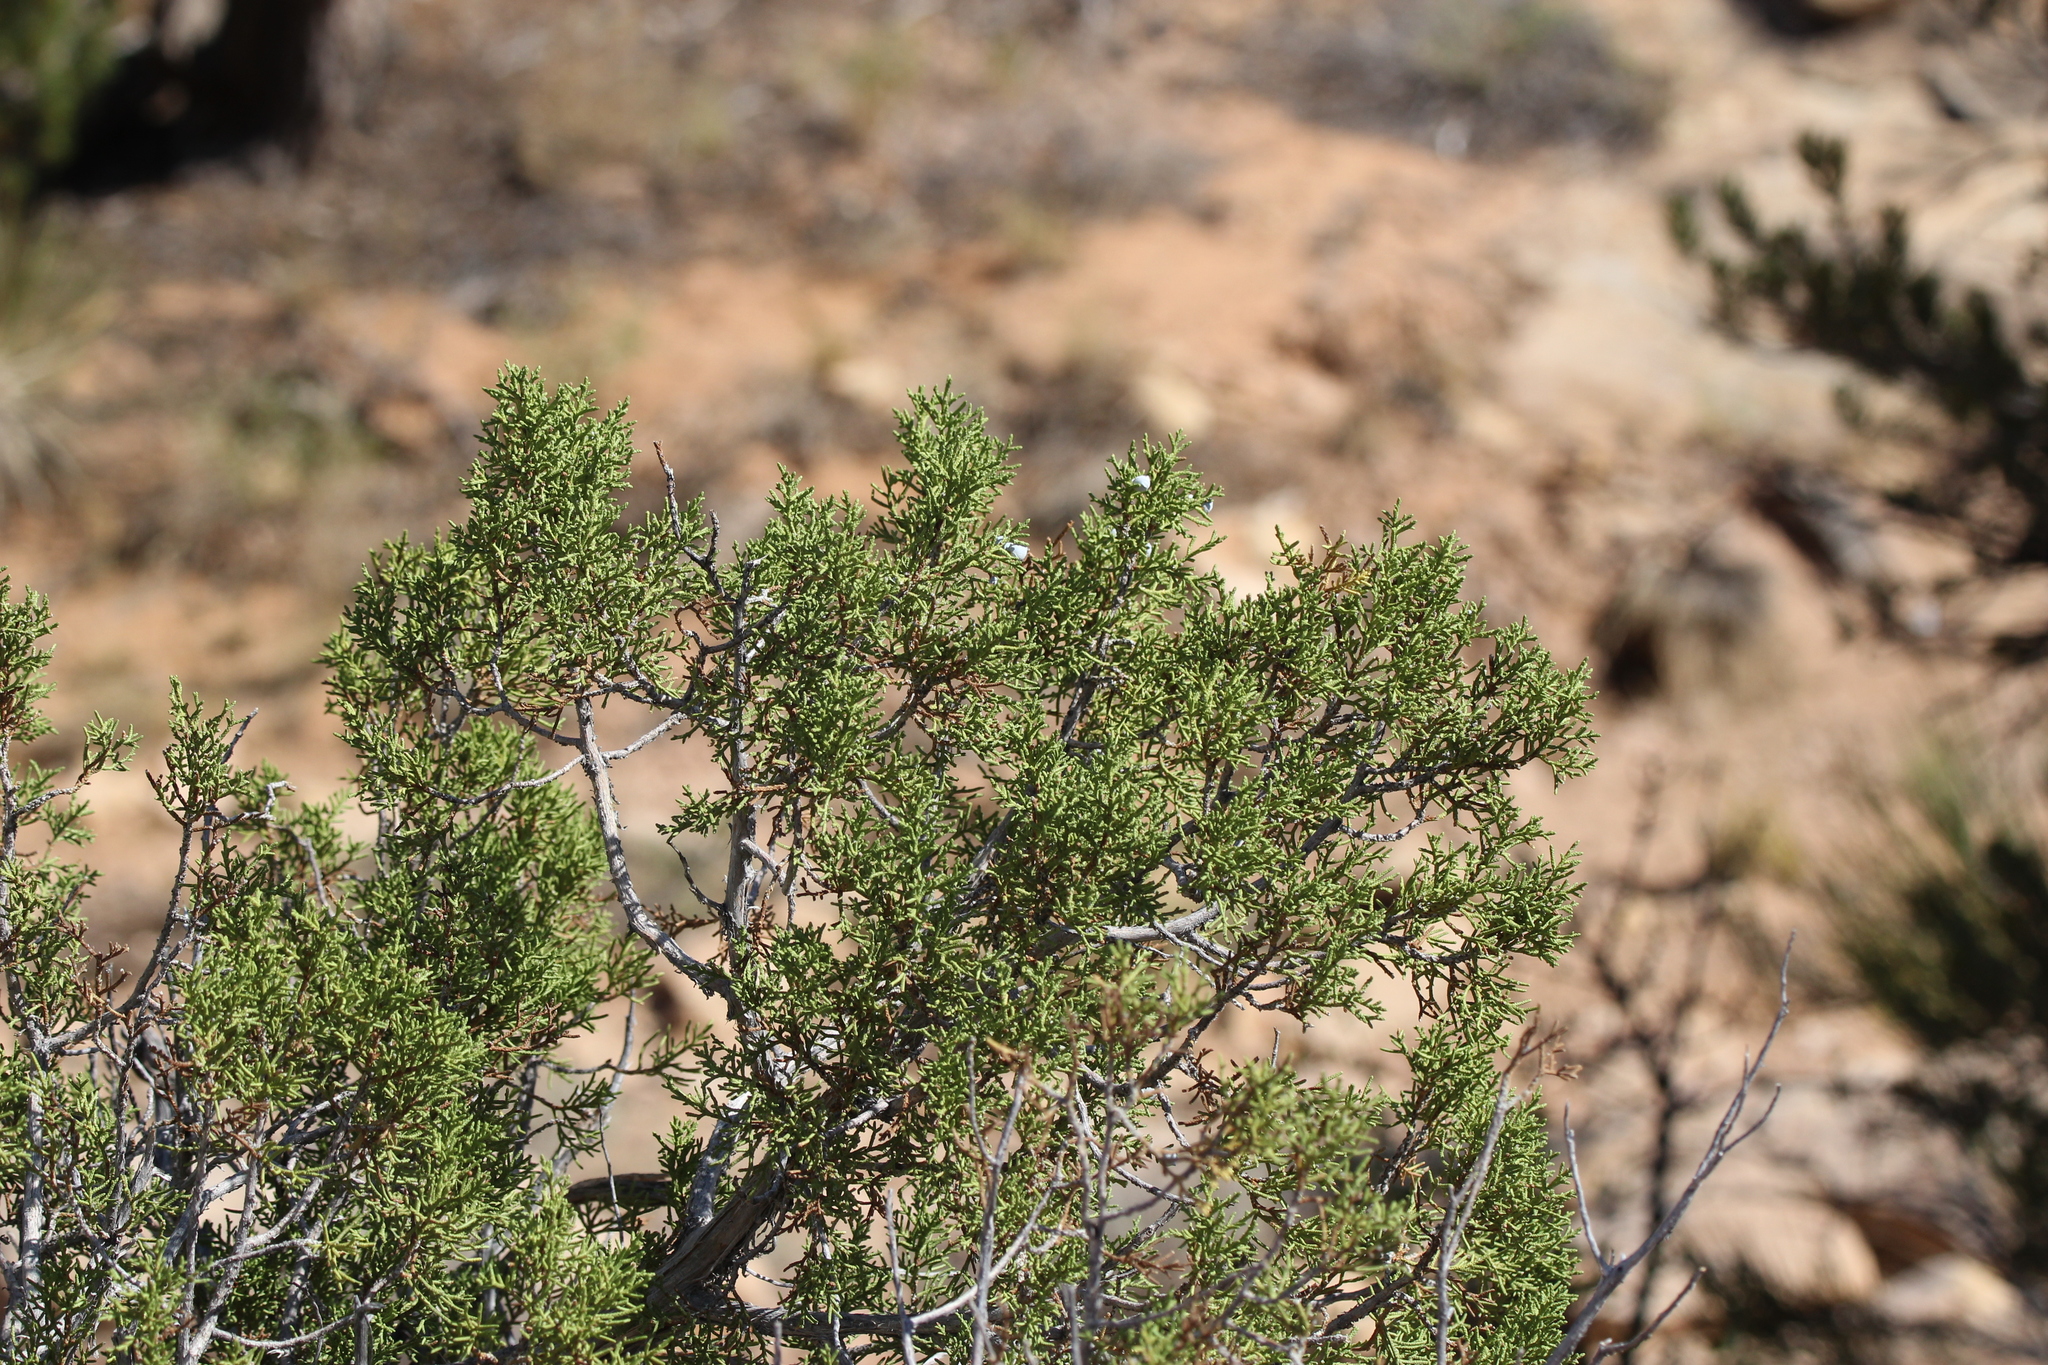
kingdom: Plantae
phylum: Tracheophyta
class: Pinopsida
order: Pinales
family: Cupressaceae
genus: Juniperus
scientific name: Juniperus osteosperma
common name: Utah juniper
